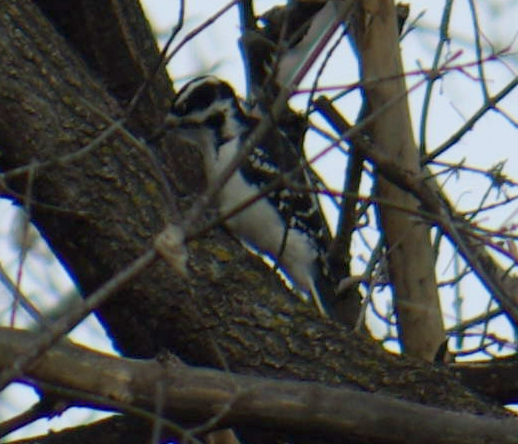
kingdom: Animalia
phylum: Chordata
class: Aves
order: Piciformes
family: Picidae
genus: Leuconotopicus
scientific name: Leuconotopicus villosus
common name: Hairy woodpecker
